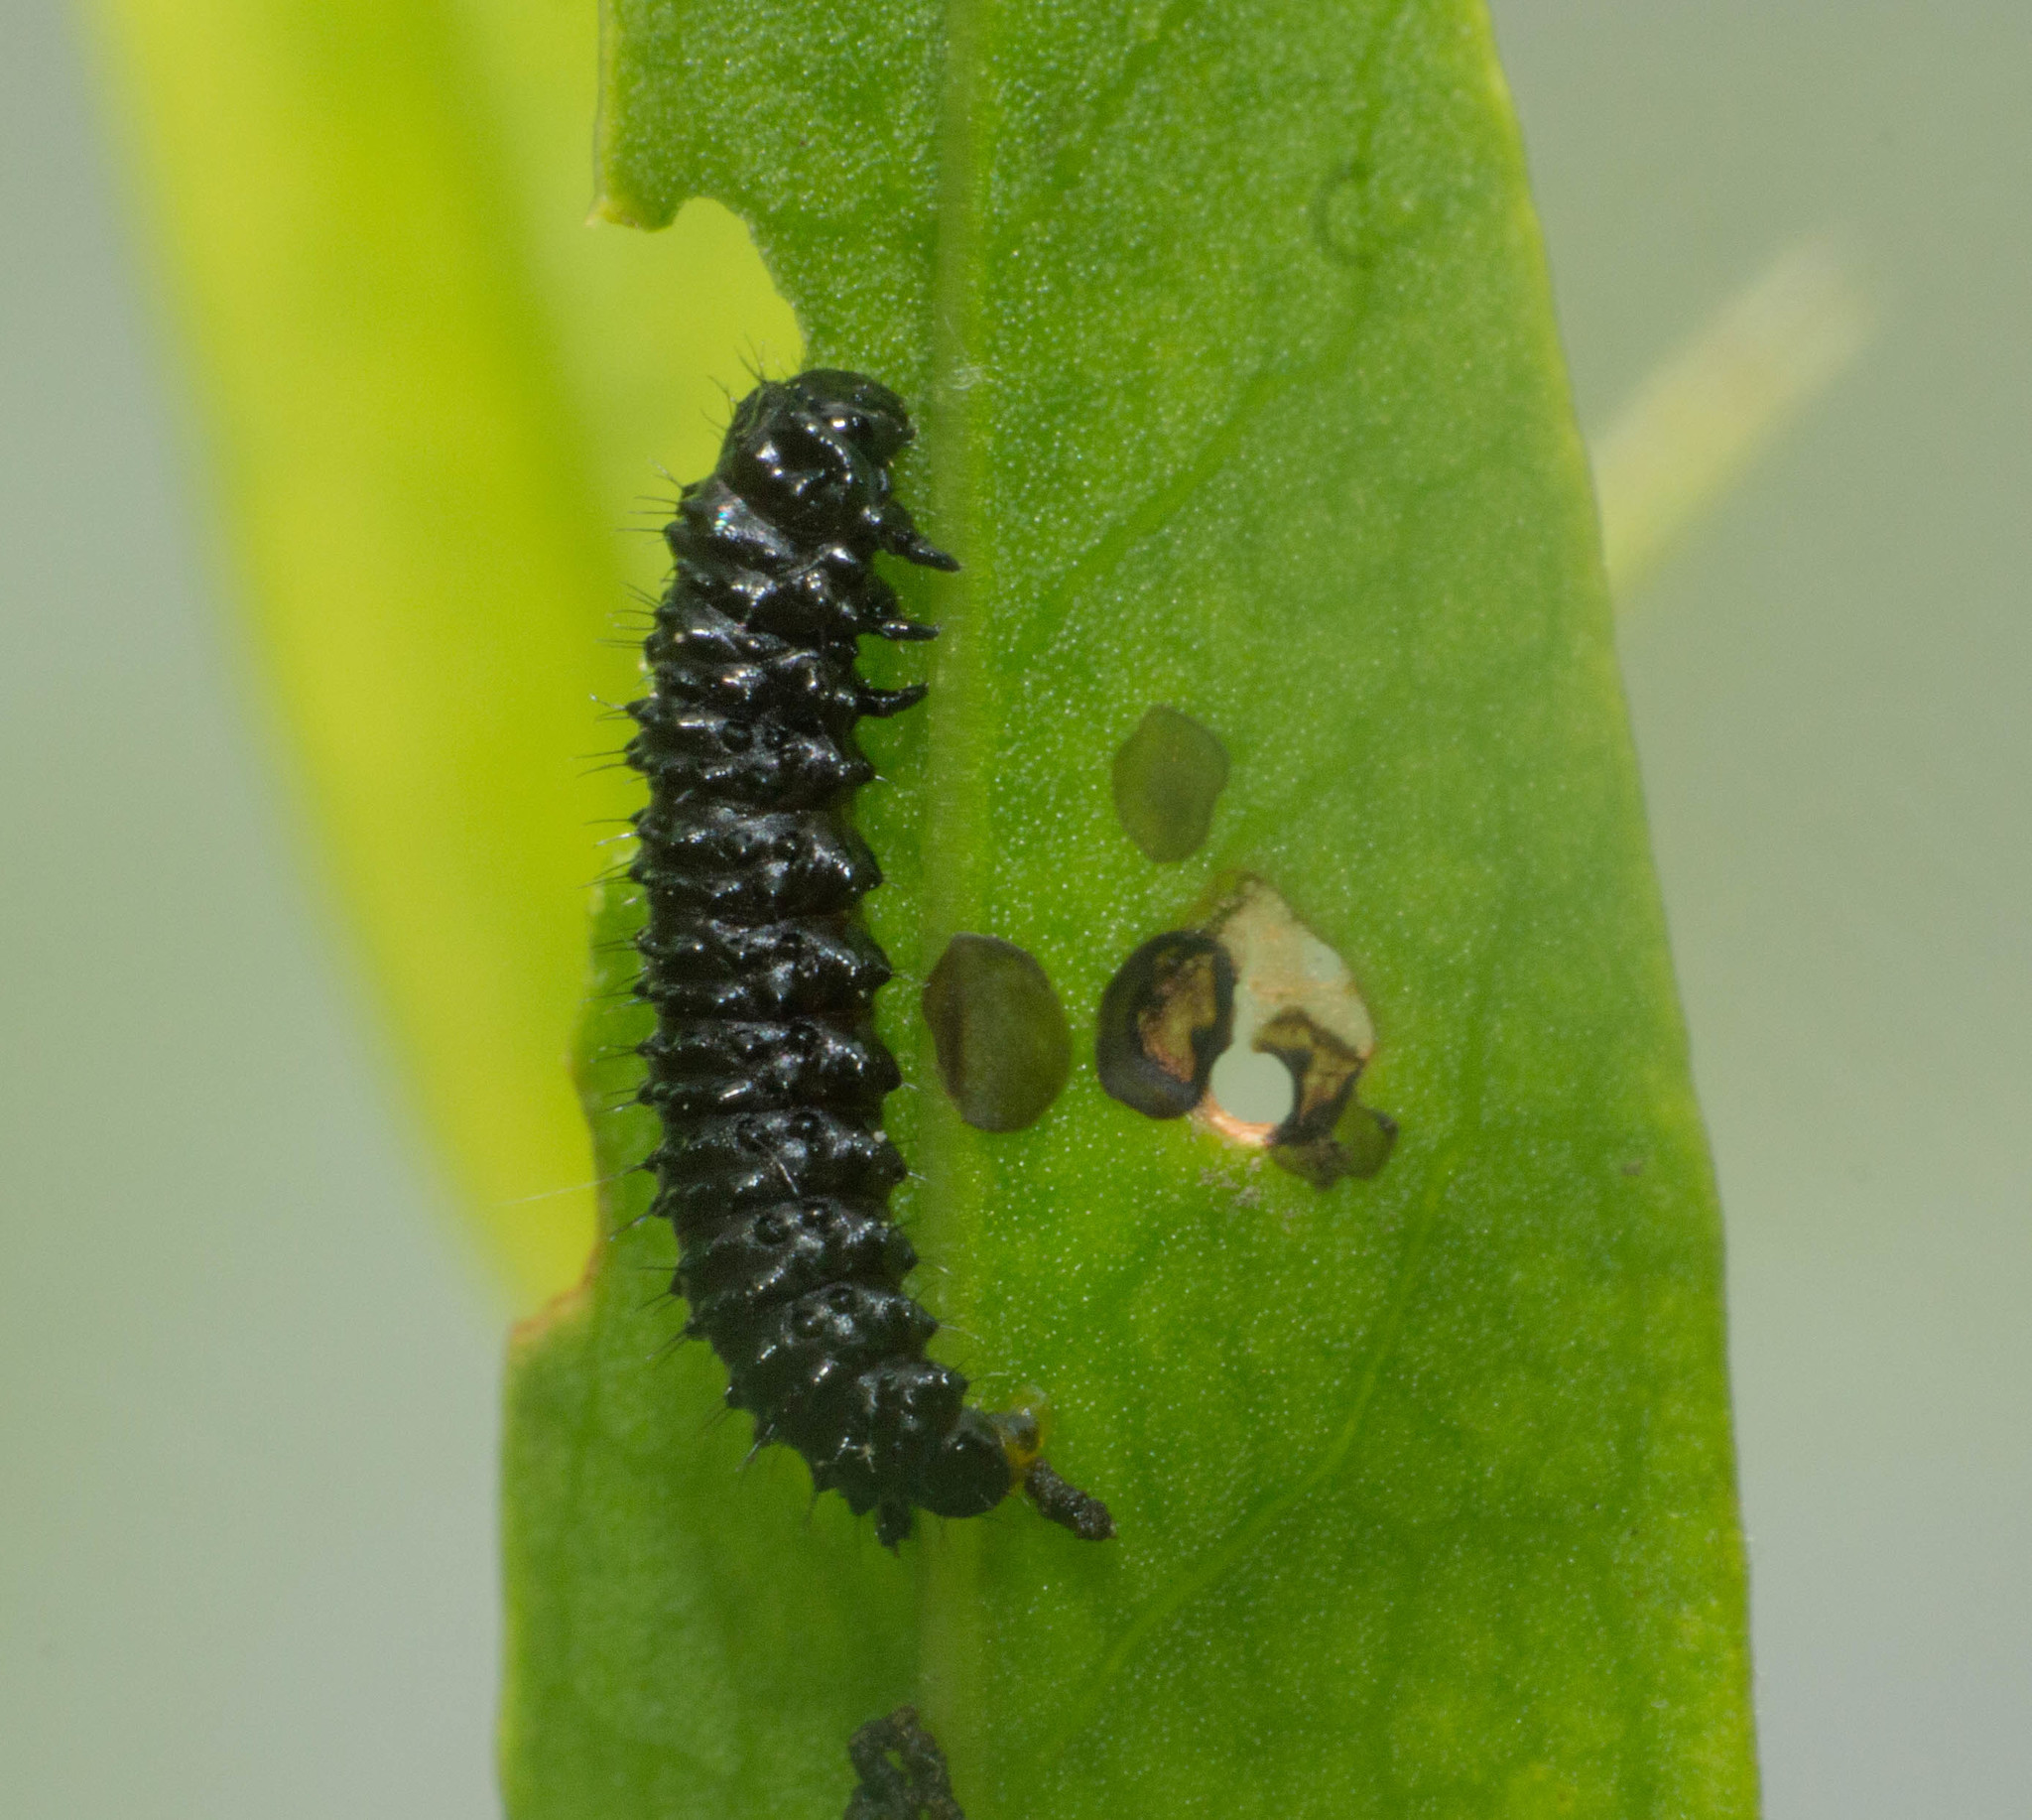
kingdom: Animalia
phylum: Arthropoda
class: Insecta
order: Coleoptera
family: Chrysomelidae
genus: Macrohaltica
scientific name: Macrohaltica
